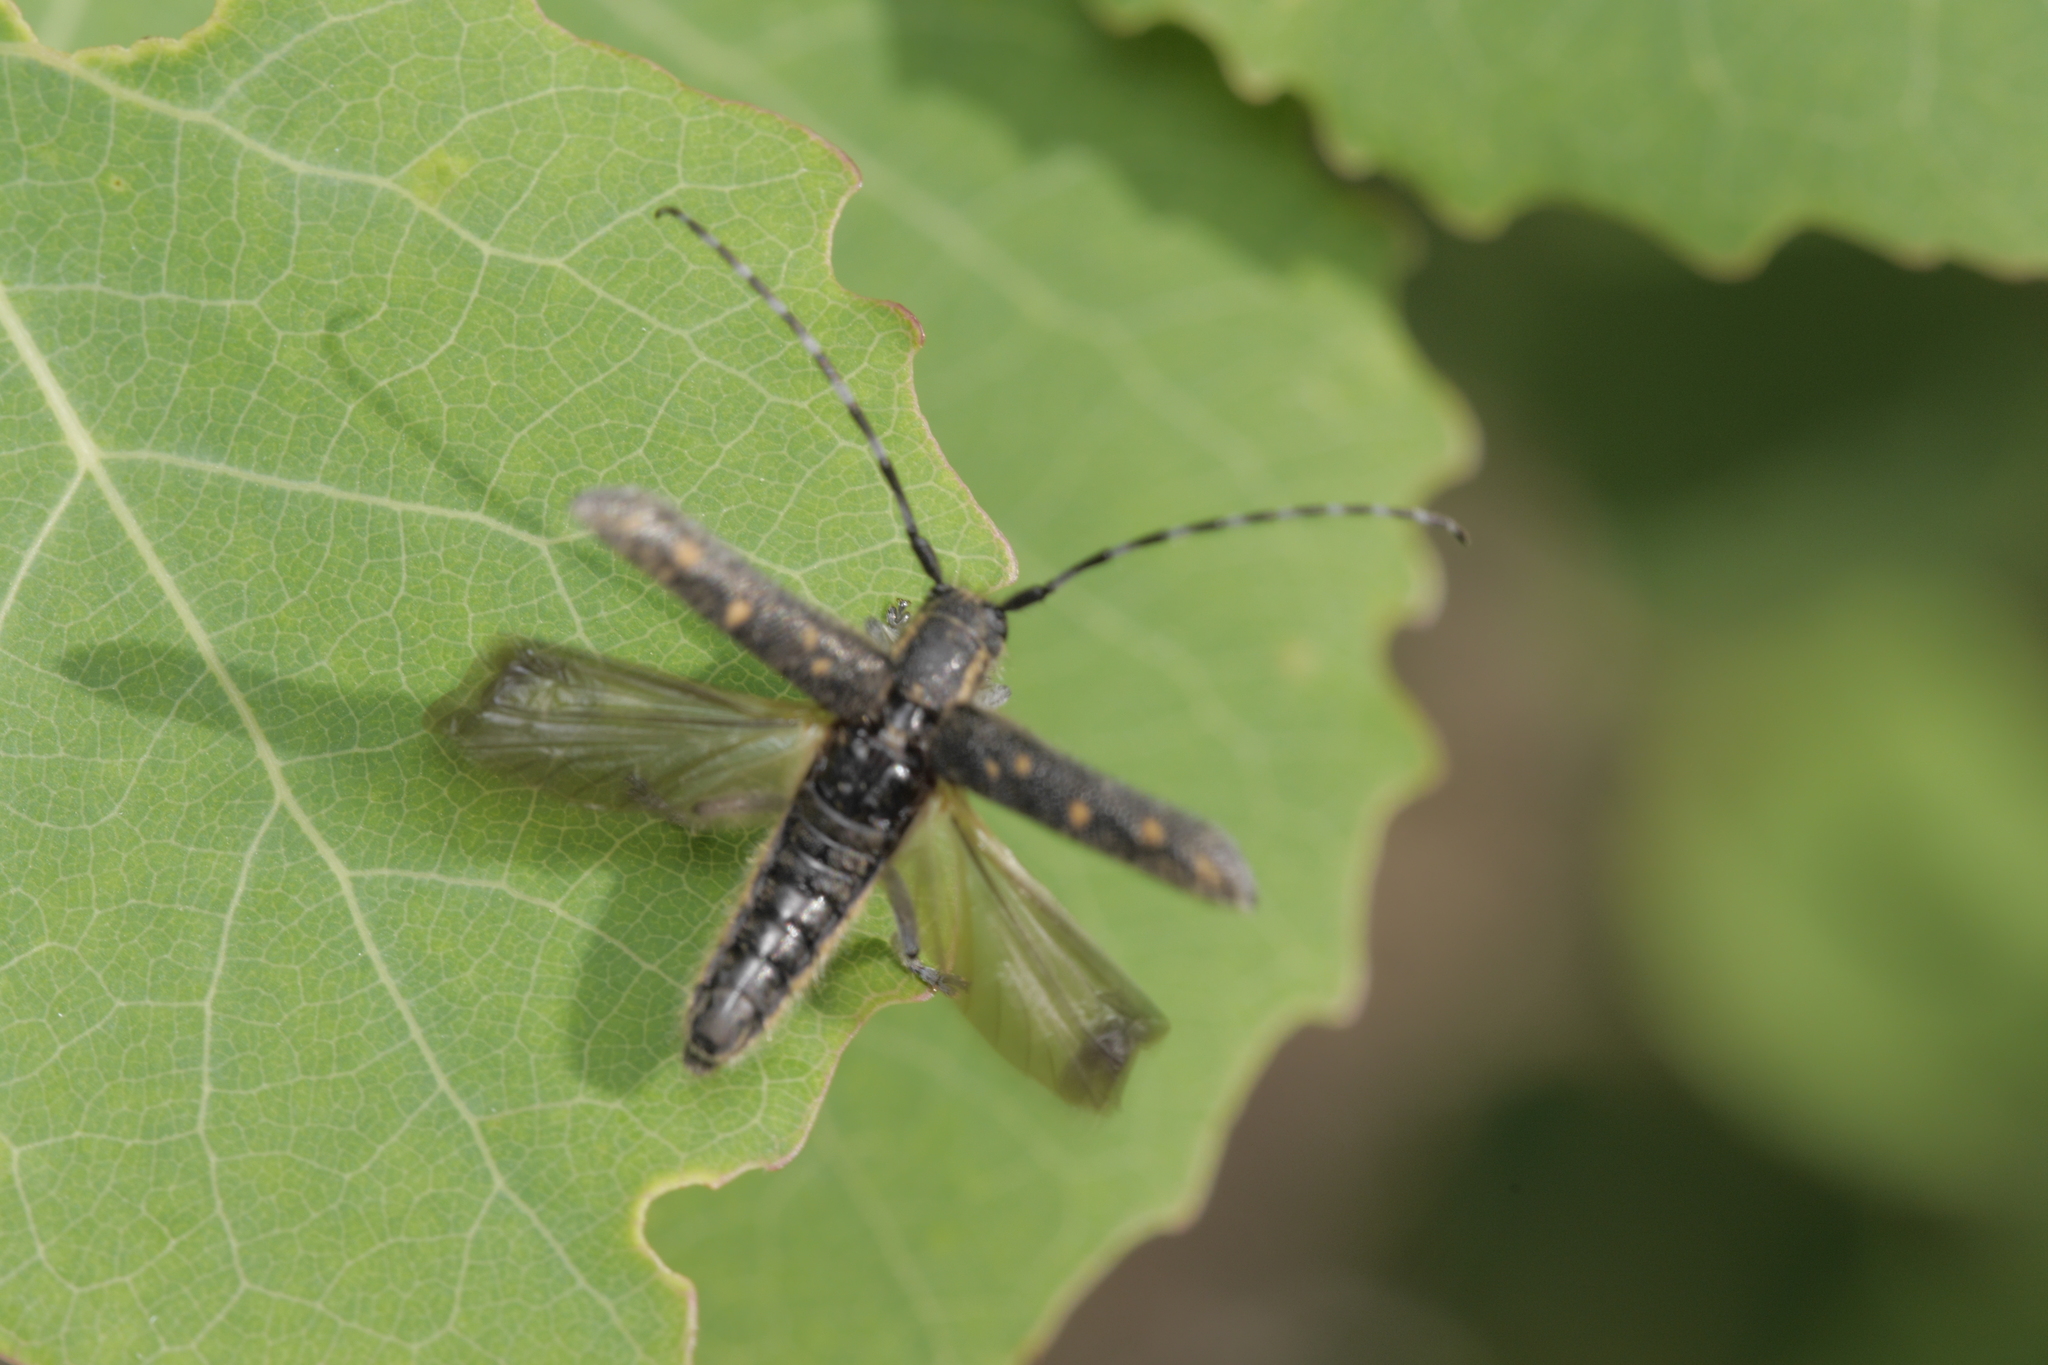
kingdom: Animalia
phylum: Arthropoda
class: Insecta
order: Coleoptera
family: Cerambycidae
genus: Saperda
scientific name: Saperda populnea
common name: Small poplar borer
